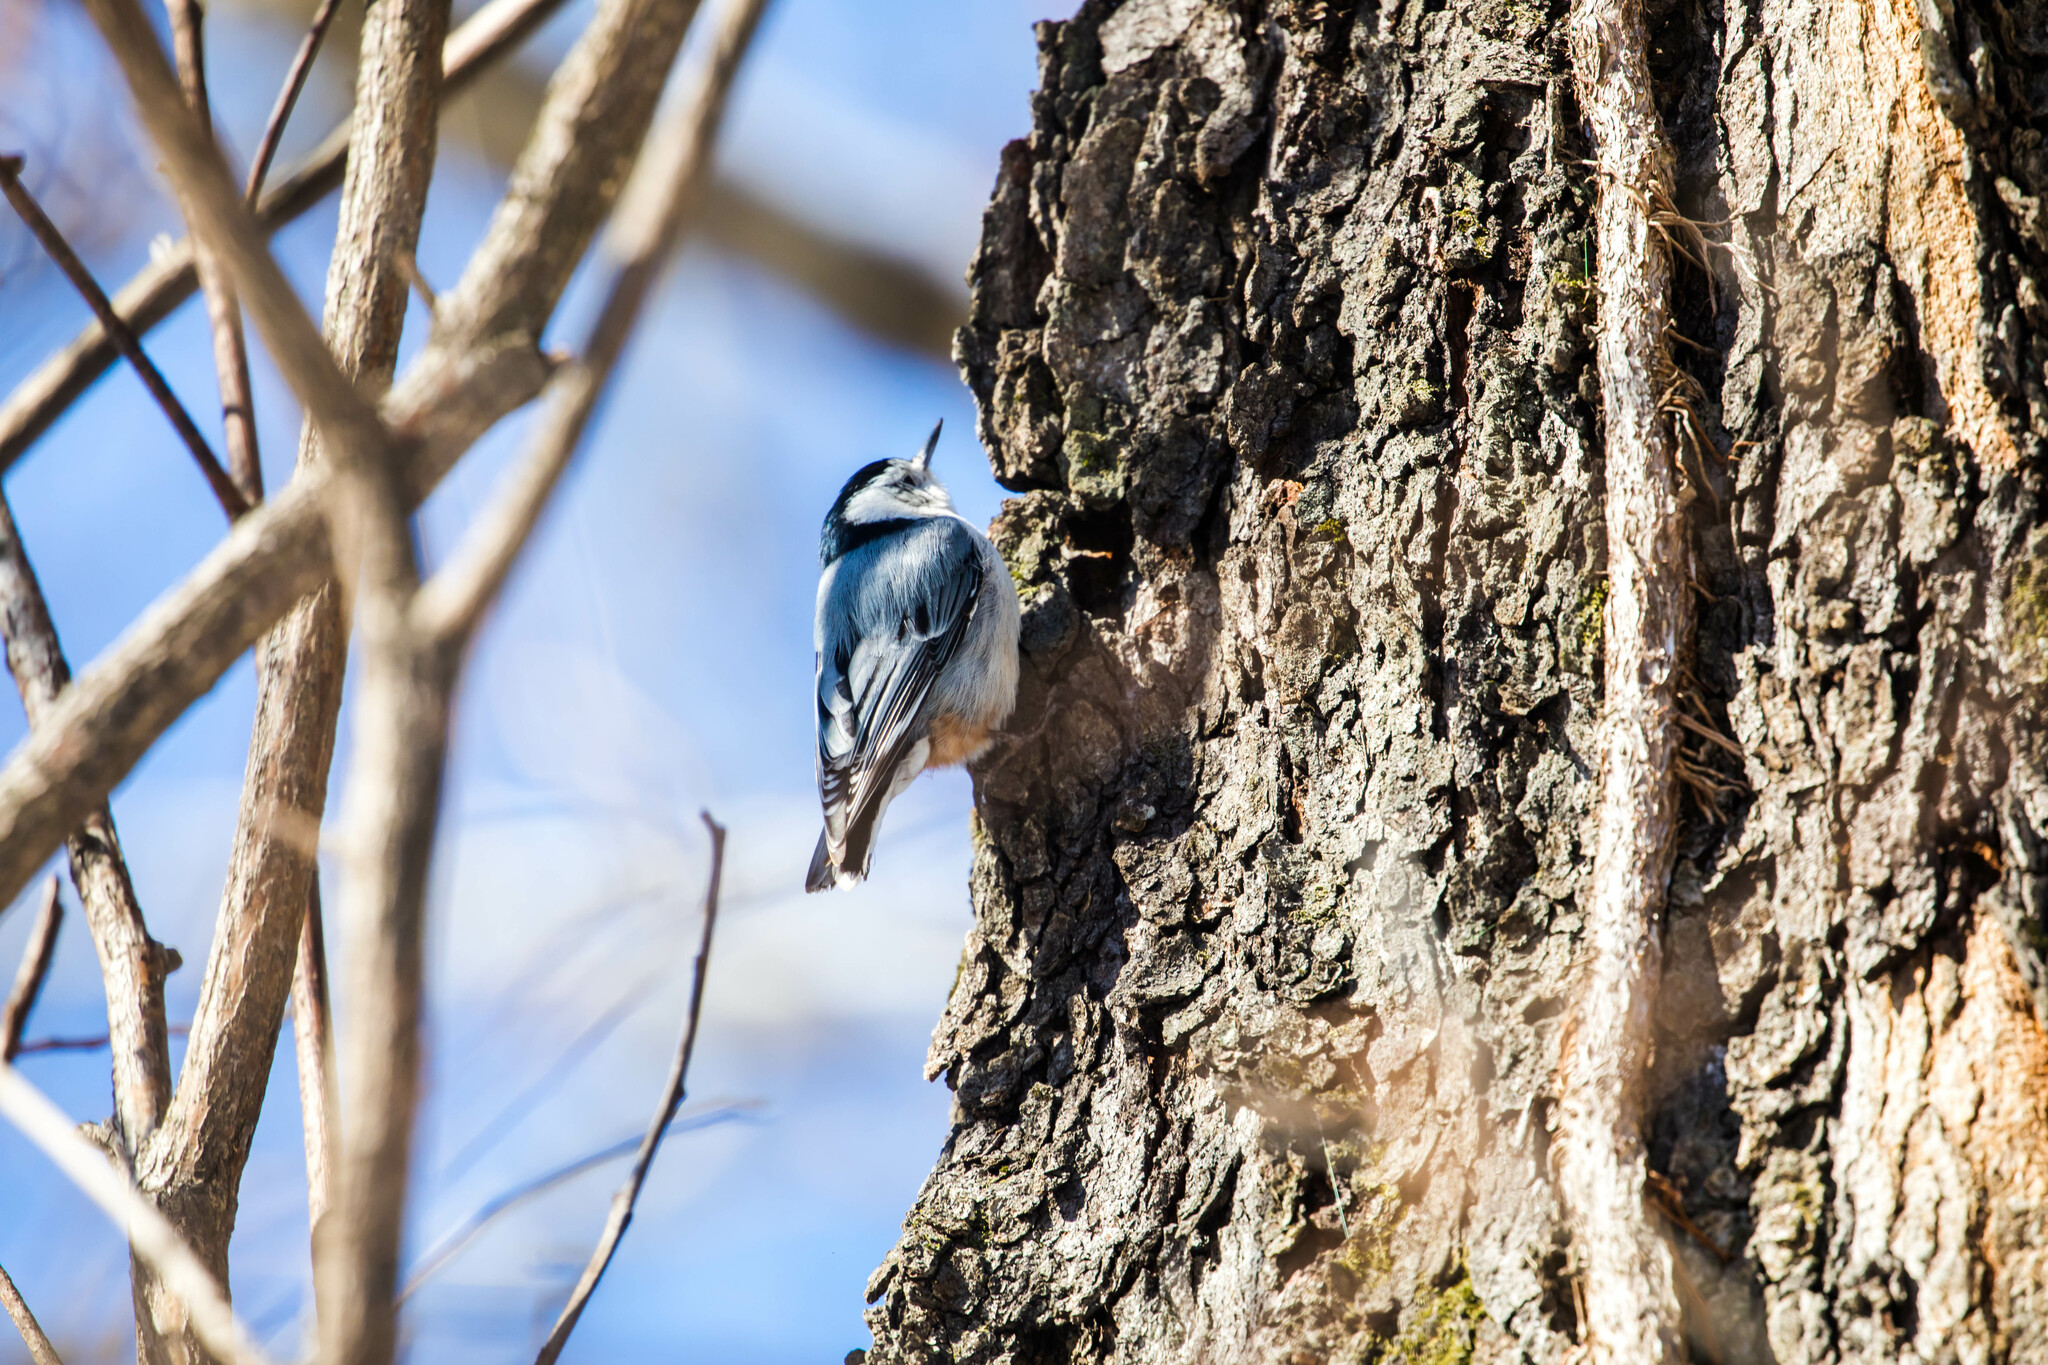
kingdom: Animalia
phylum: Chordata
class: Aves
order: Passeriformes
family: Sittidae
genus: Sitta
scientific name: Sitta carolinensis
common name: White-breasted nuthatch
